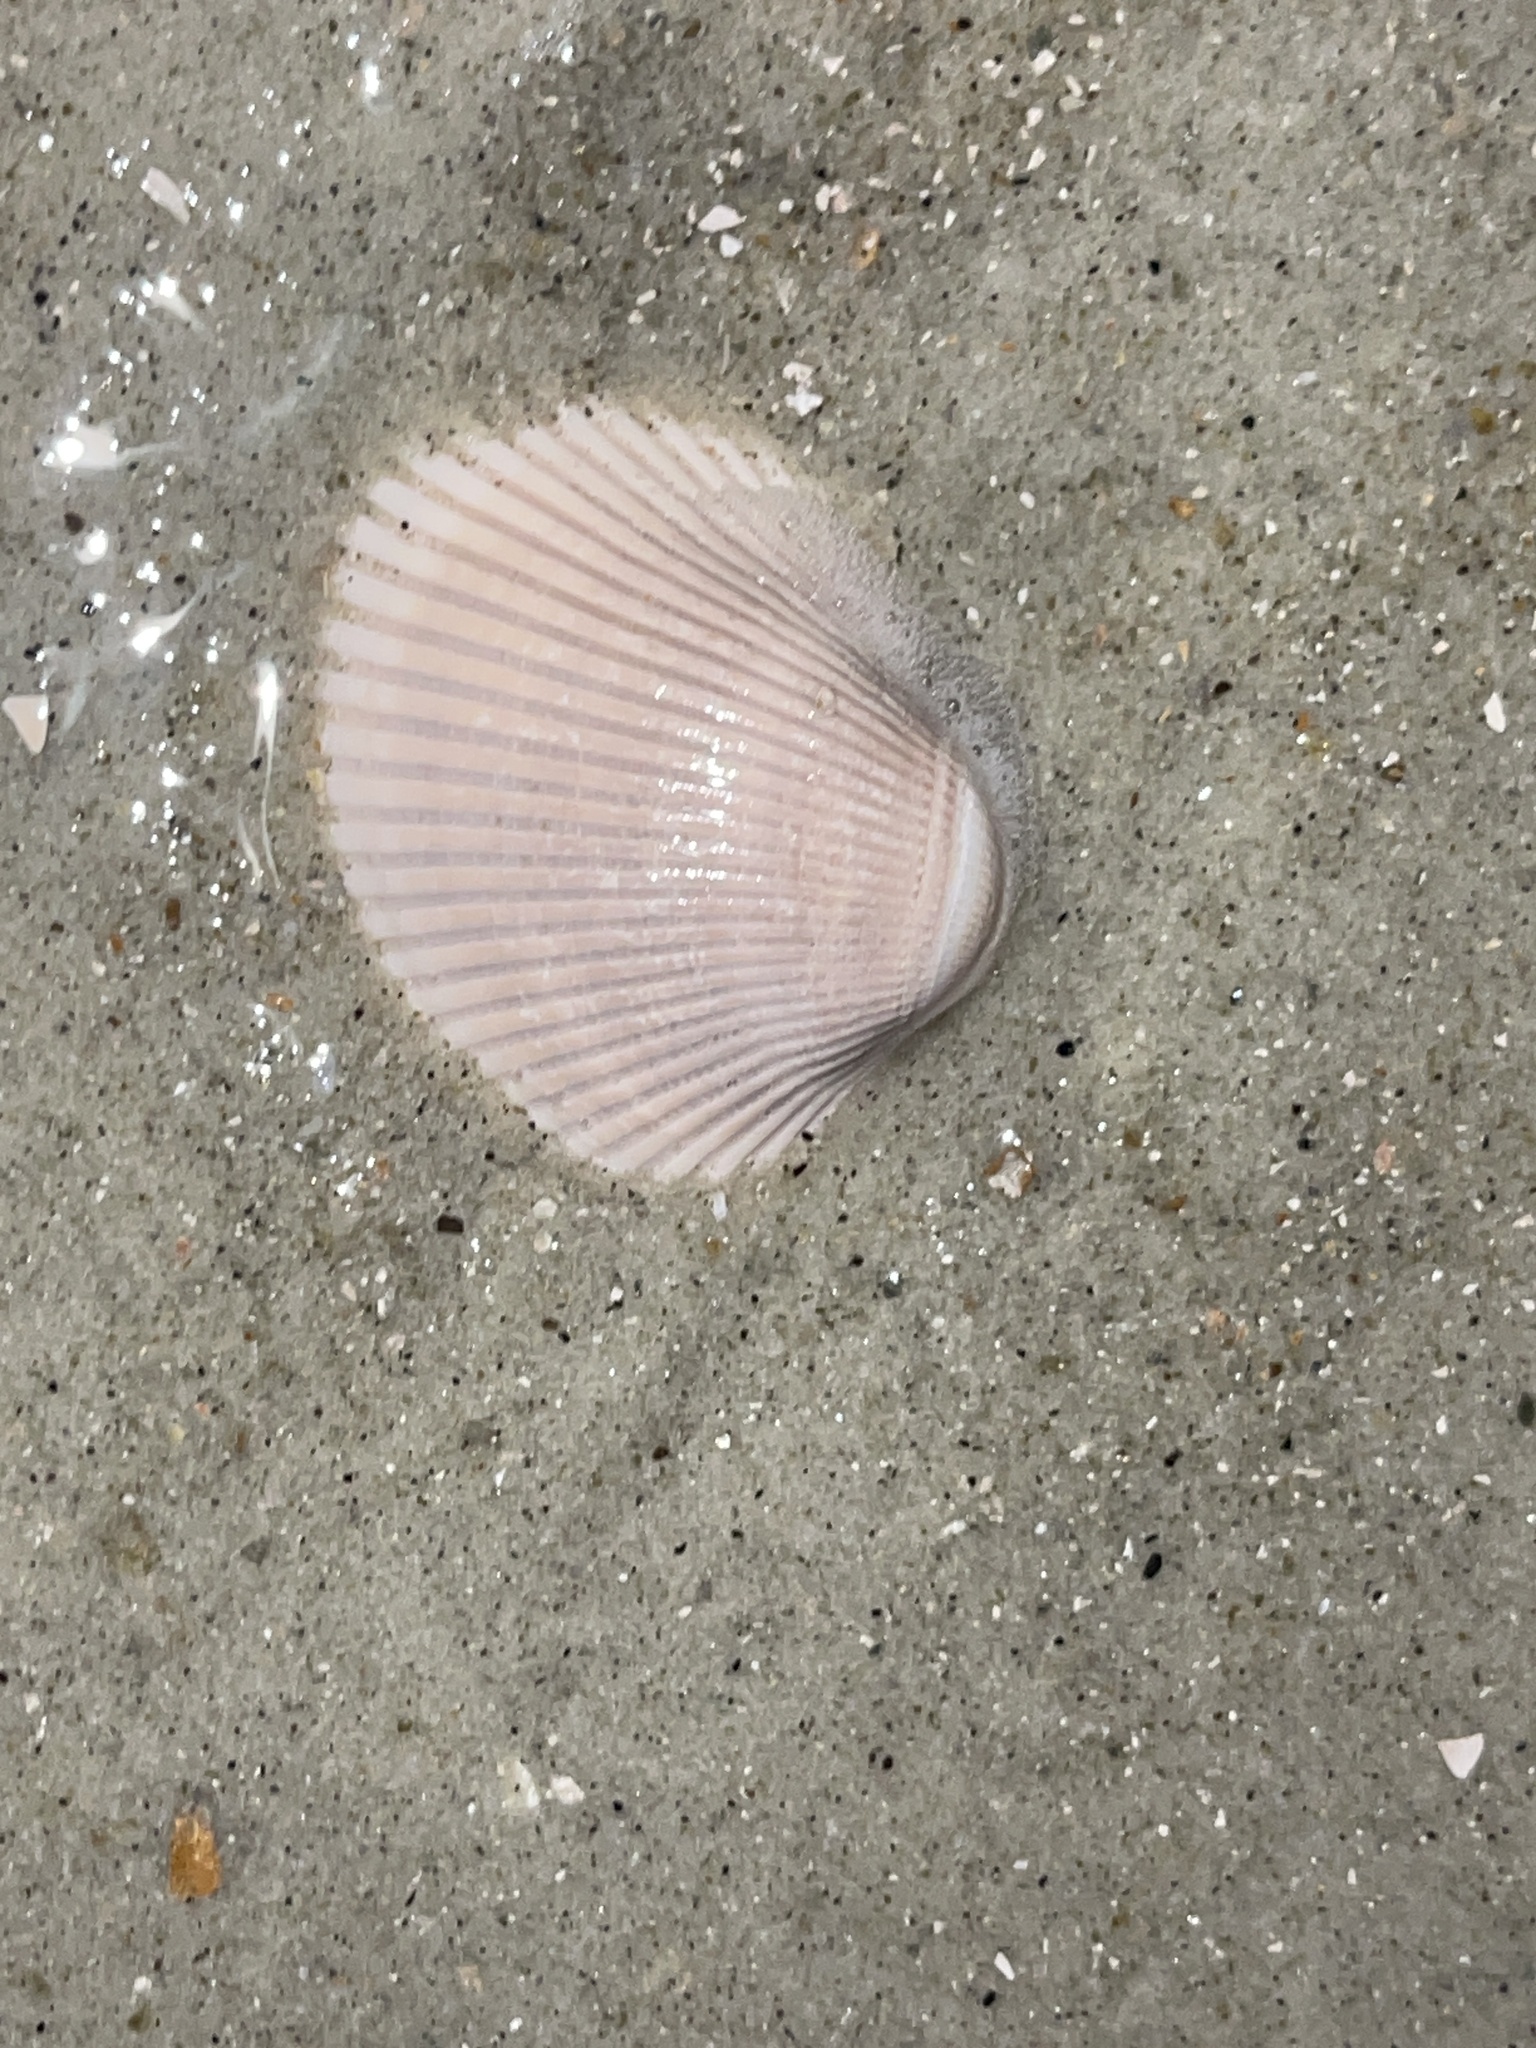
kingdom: Animalia
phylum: Mollusca
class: Bivalvia
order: Arcida
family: Arcidae
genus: Lunarca
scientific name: Lunarca ovalis
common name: Blood ark
